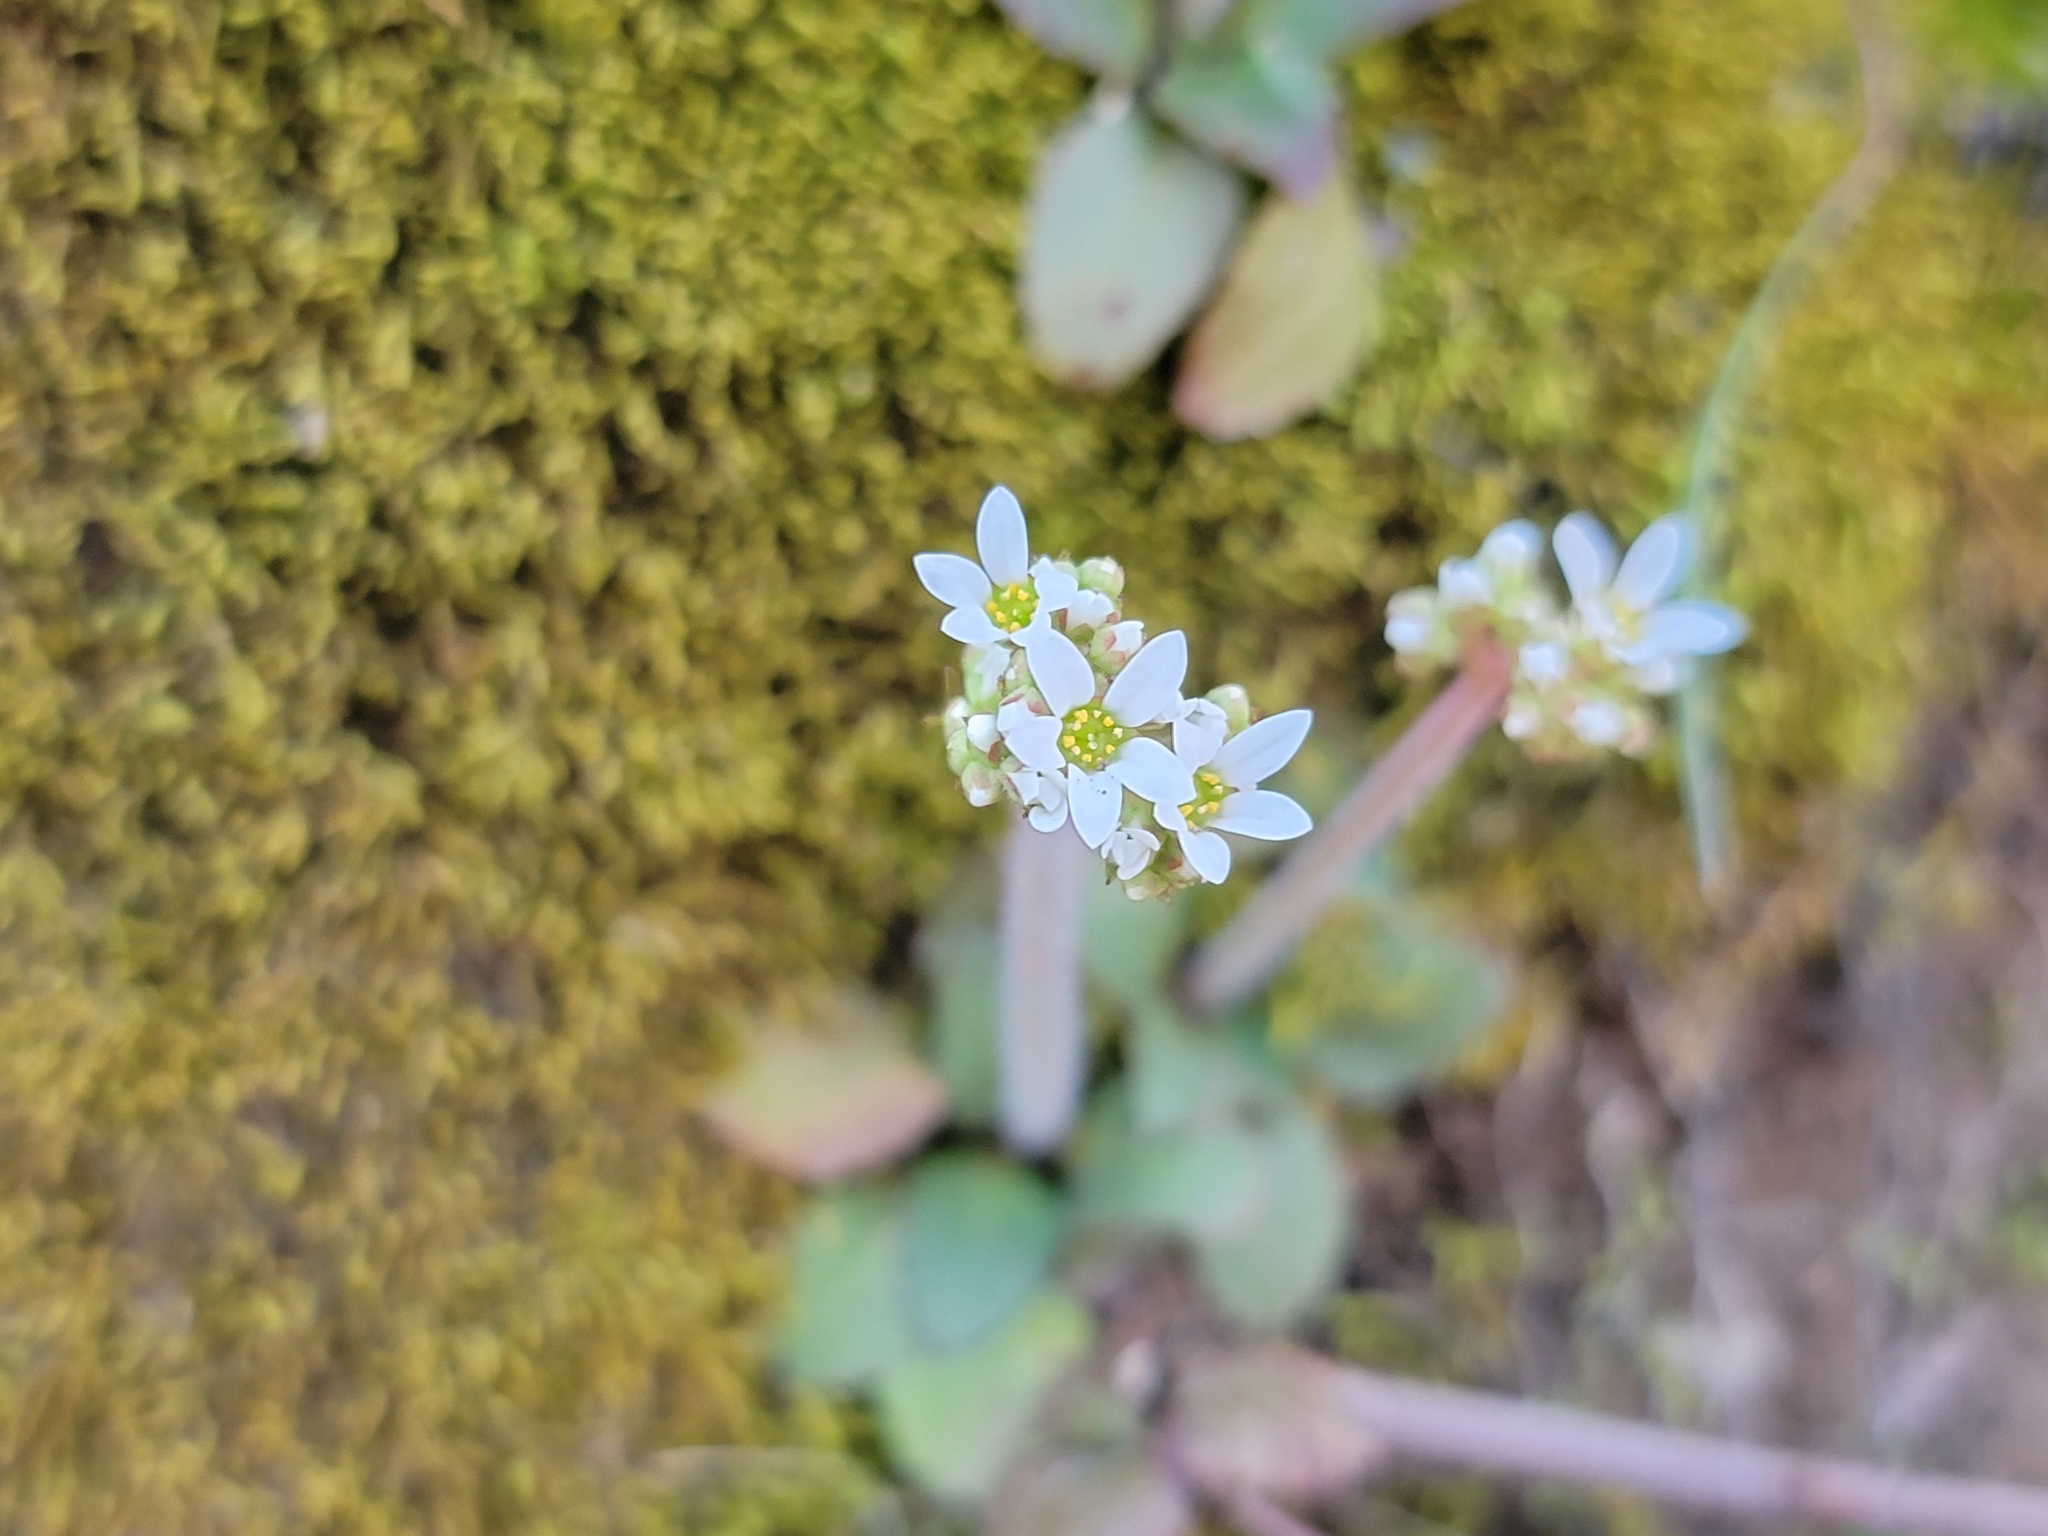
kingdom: Plantae
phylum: Tracheophyta
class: Magnoliopsida
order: Saxifragales
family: Saxifragaceae
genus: Micranthes
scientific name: Micranthes virginiensis
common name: Early saxifrage
